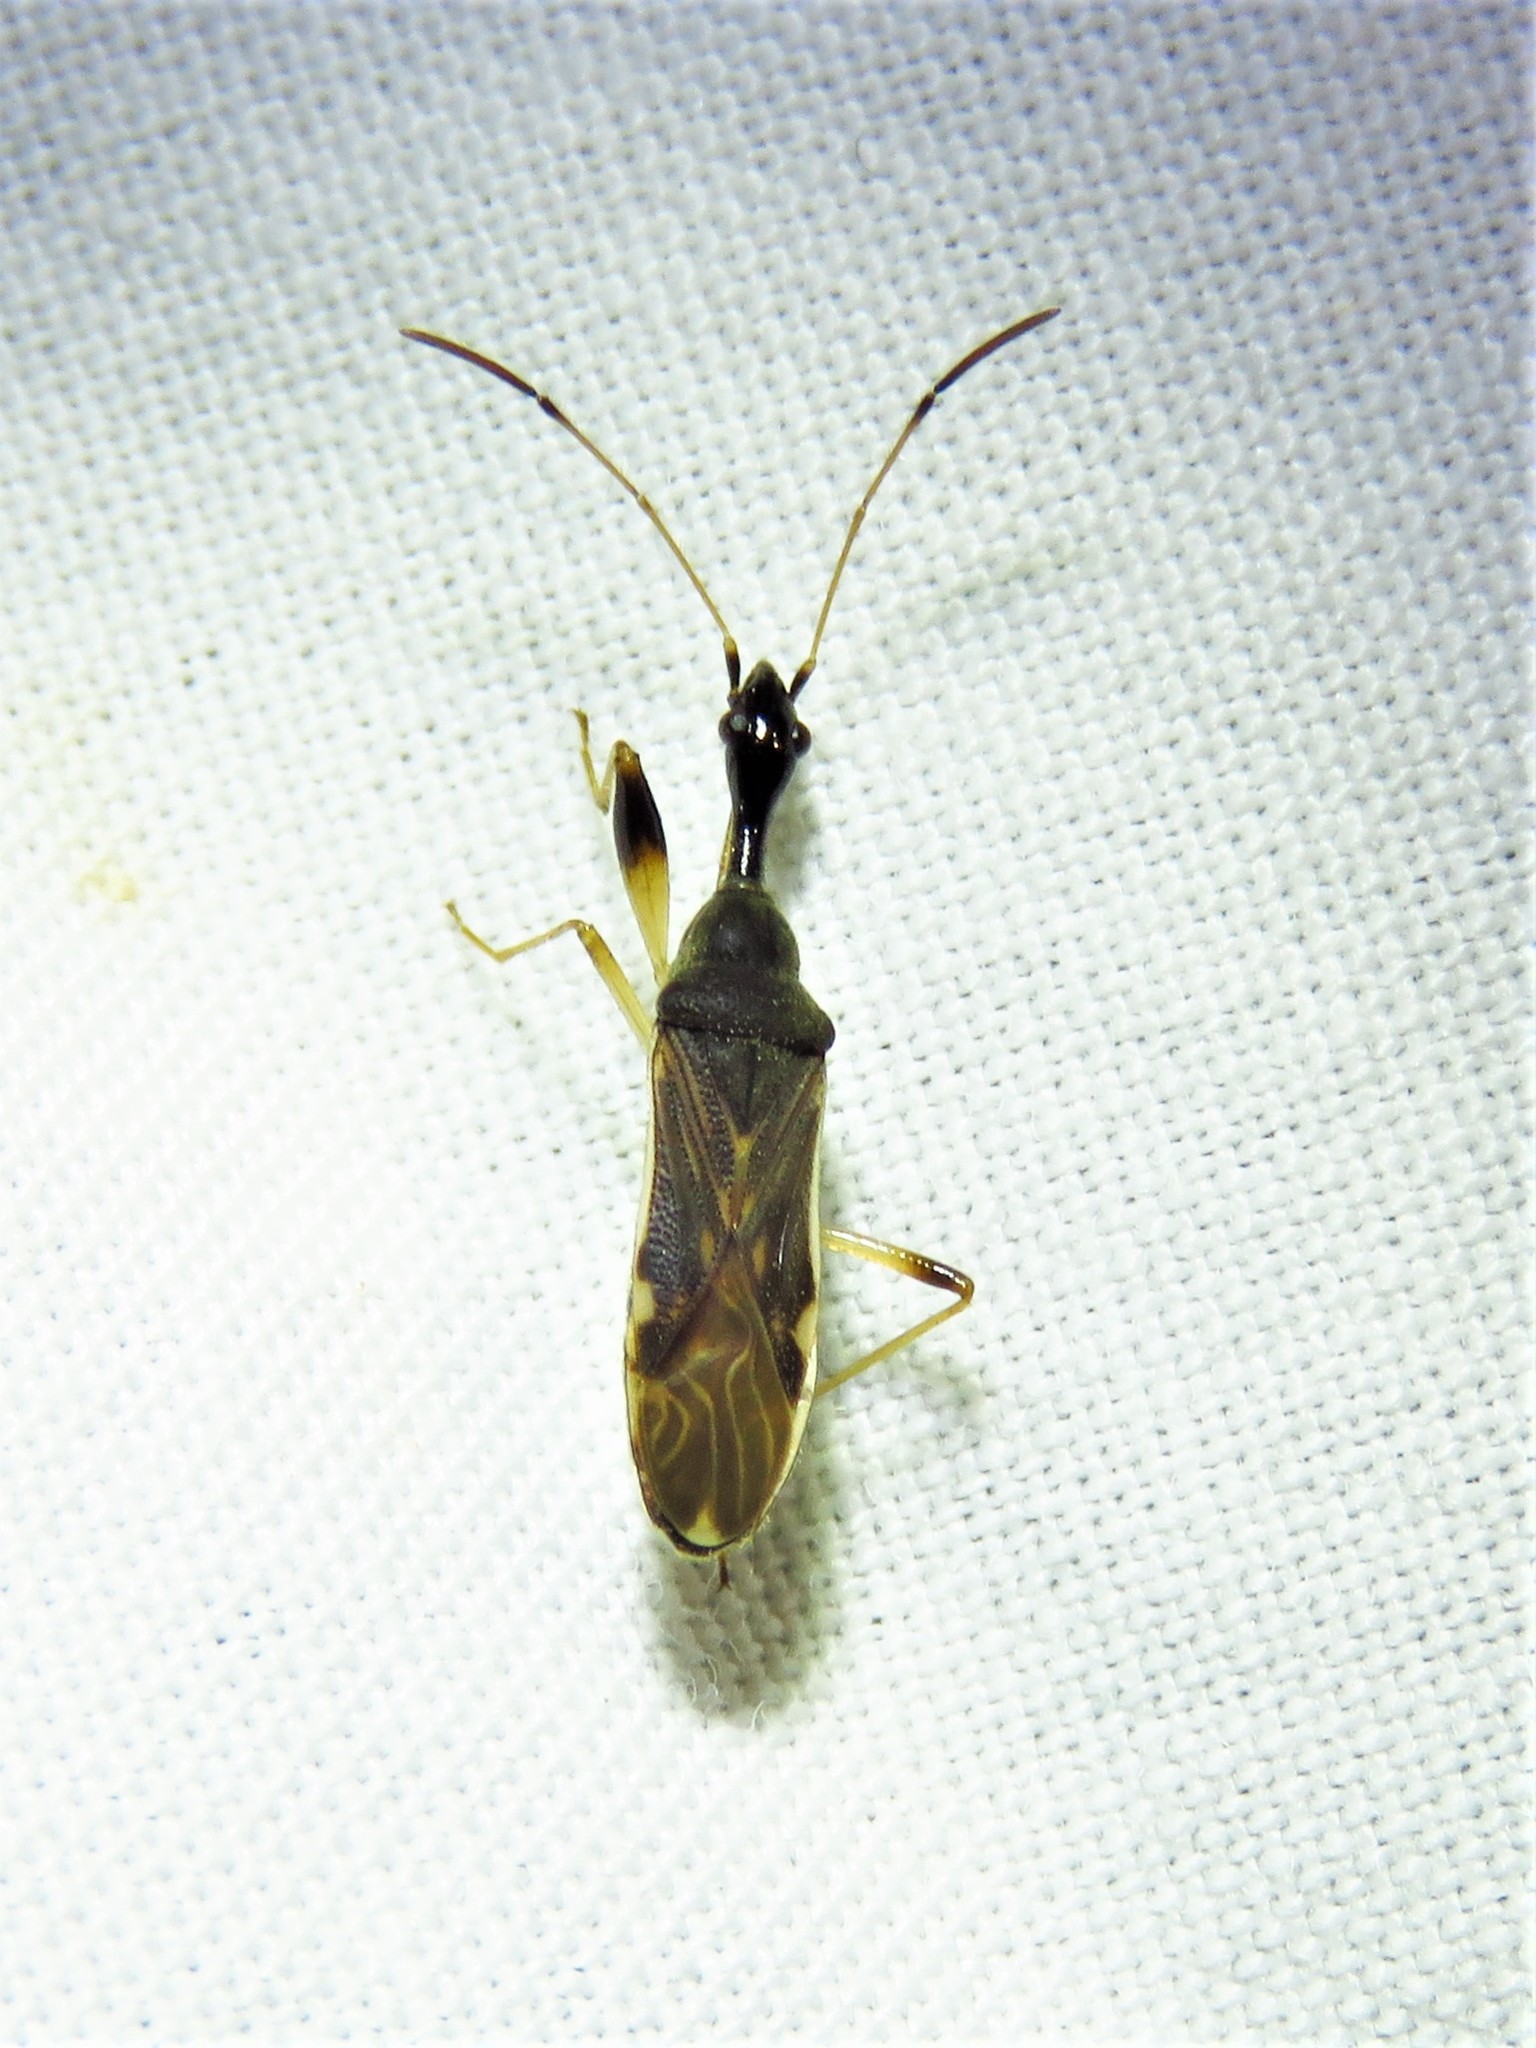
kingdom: Animalia
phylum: Arthropoda
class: Insecta
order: Hemiptera
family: Rhyparochromidae
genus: Myodocha
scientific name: Myodocha serripes
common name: Long-necked seed bug
